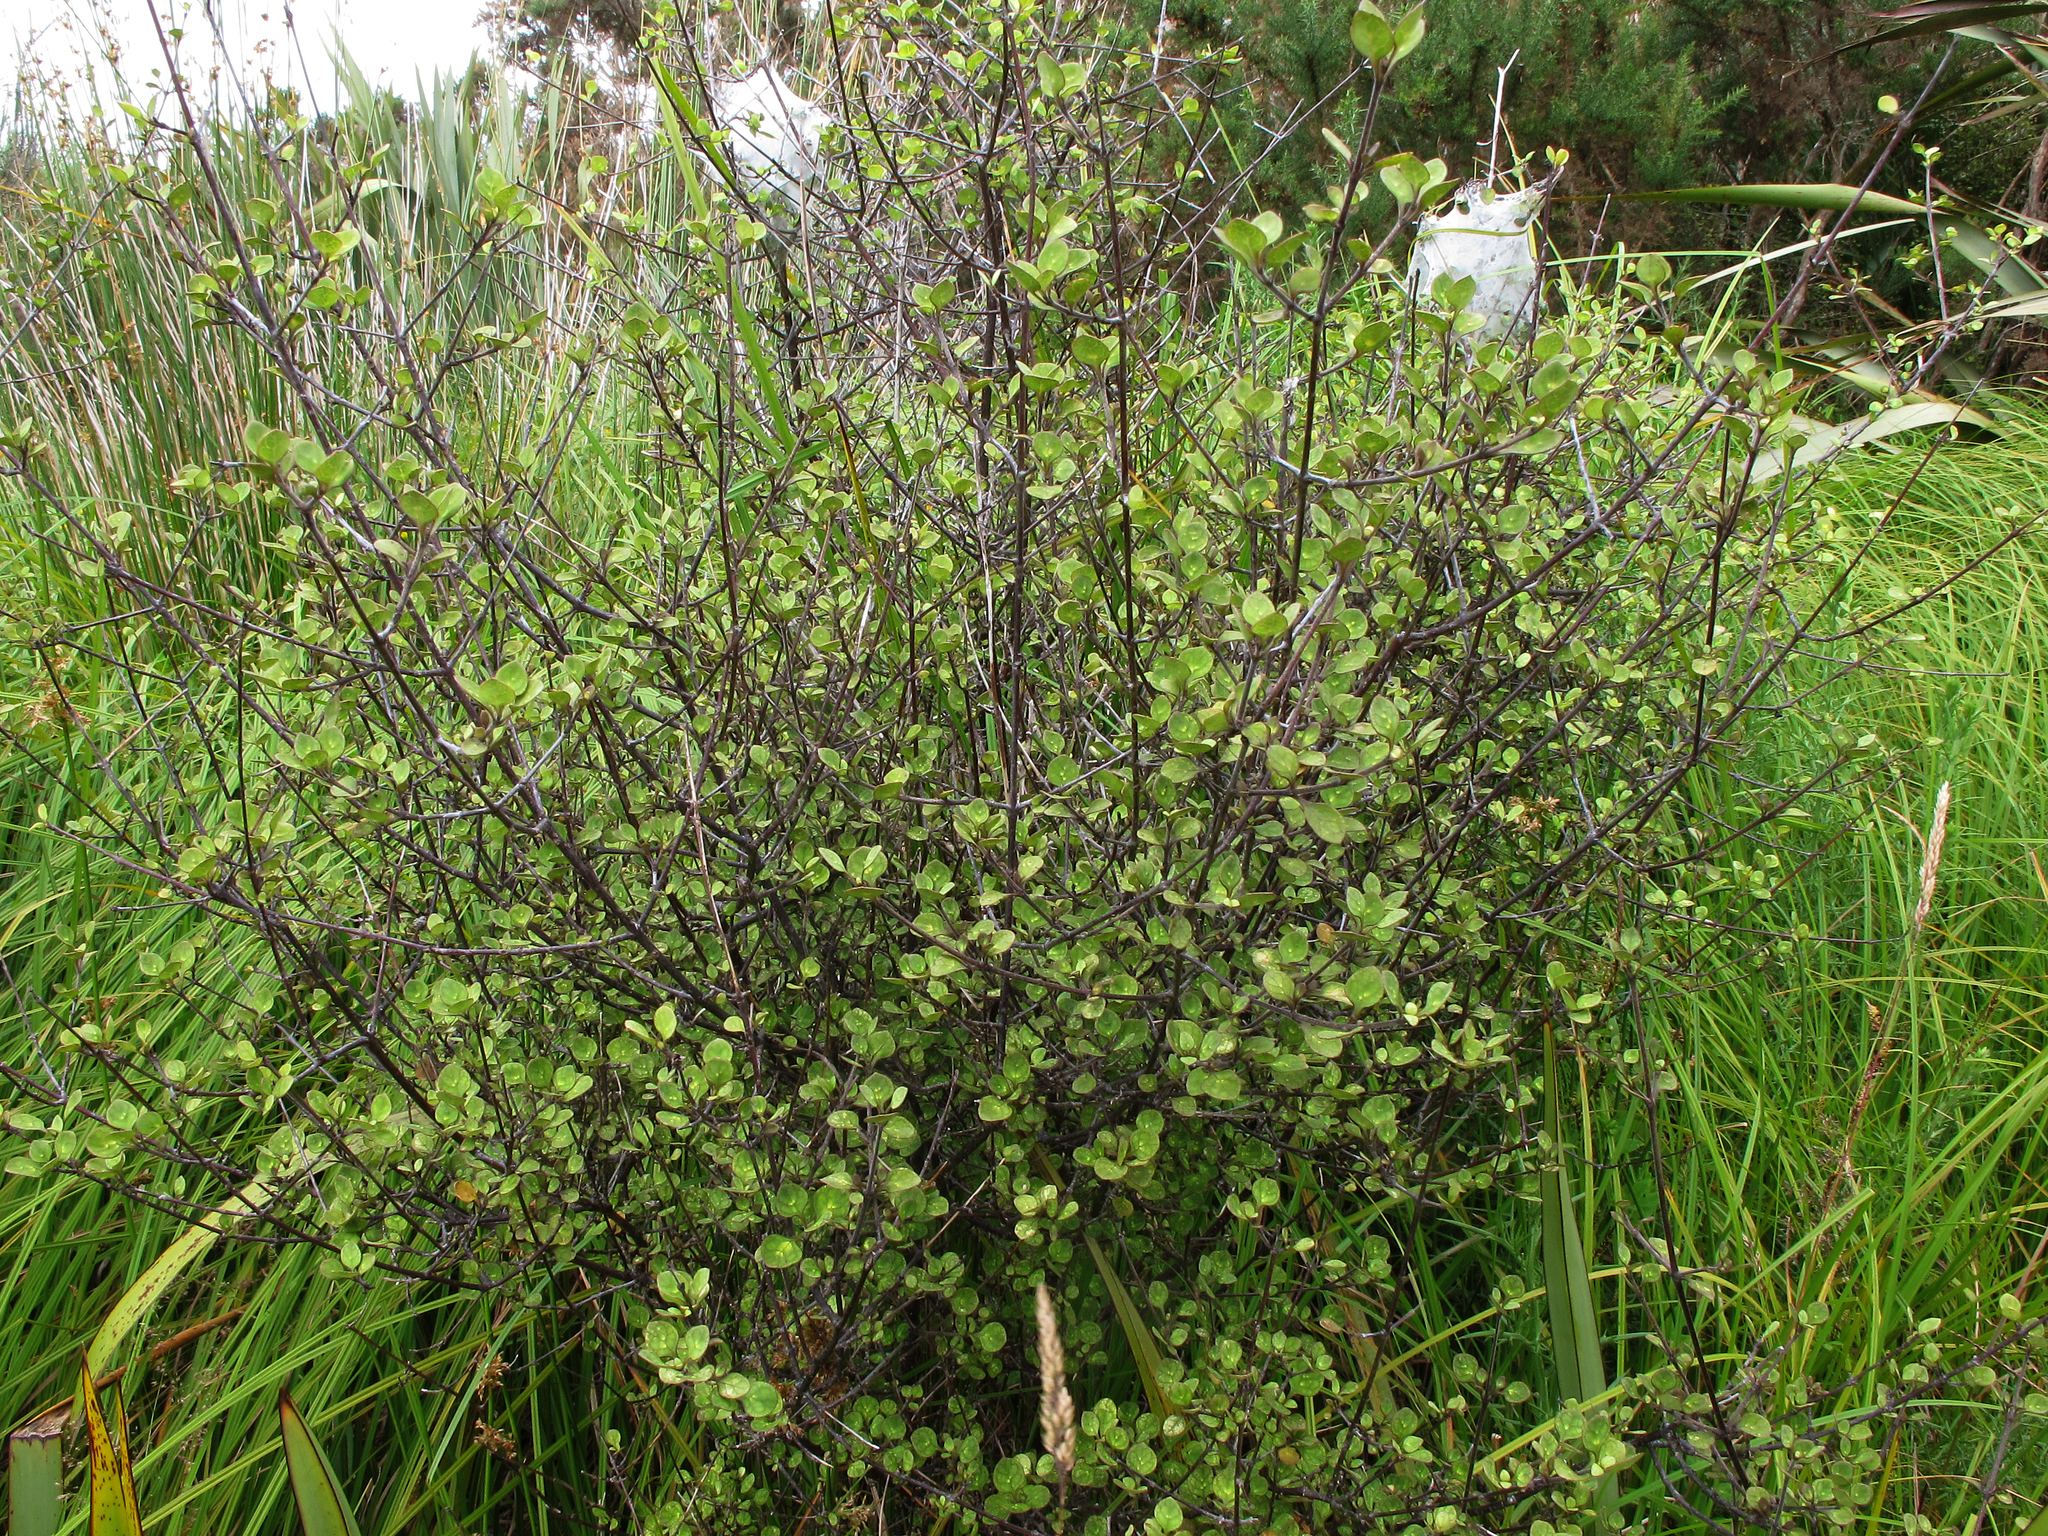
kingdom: Plantae
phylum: Tracheophyta
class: Magnoliopsida
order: Gentianales
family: Rubiaceae
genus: Coprosma
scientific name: Coprosma tenuicaulis
